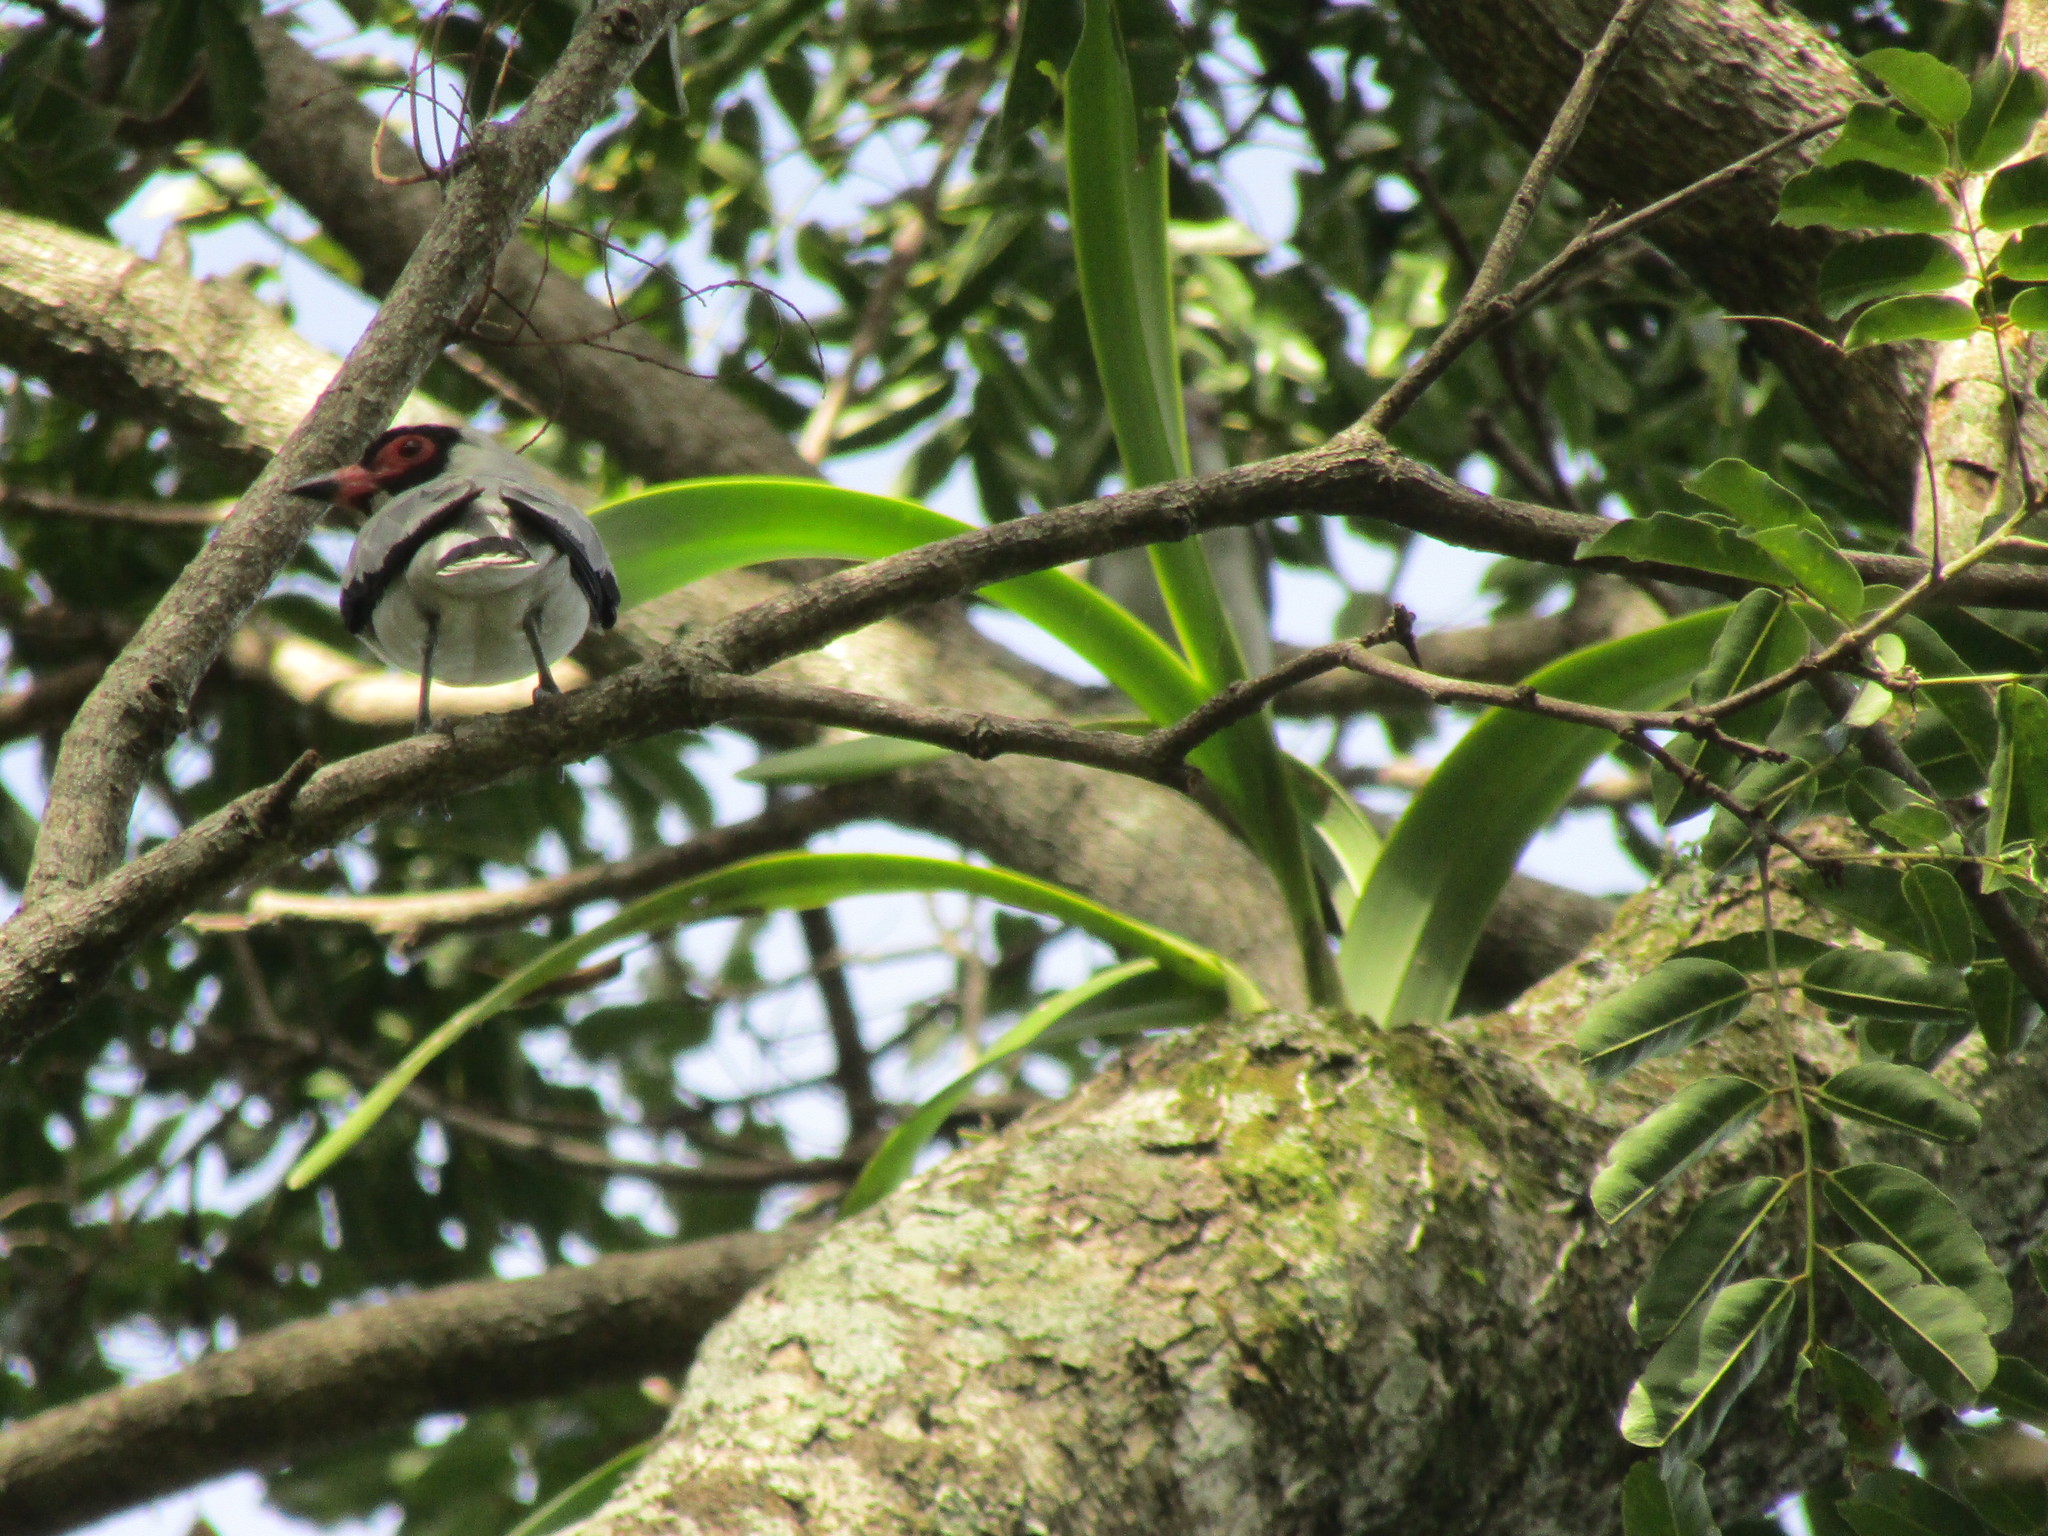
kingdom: Animalia
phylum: Chordata
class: Aves
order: Passeriformes
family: Cotingidae
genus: Tityra
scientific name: Tityra semifasciata
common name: Masked tityra
